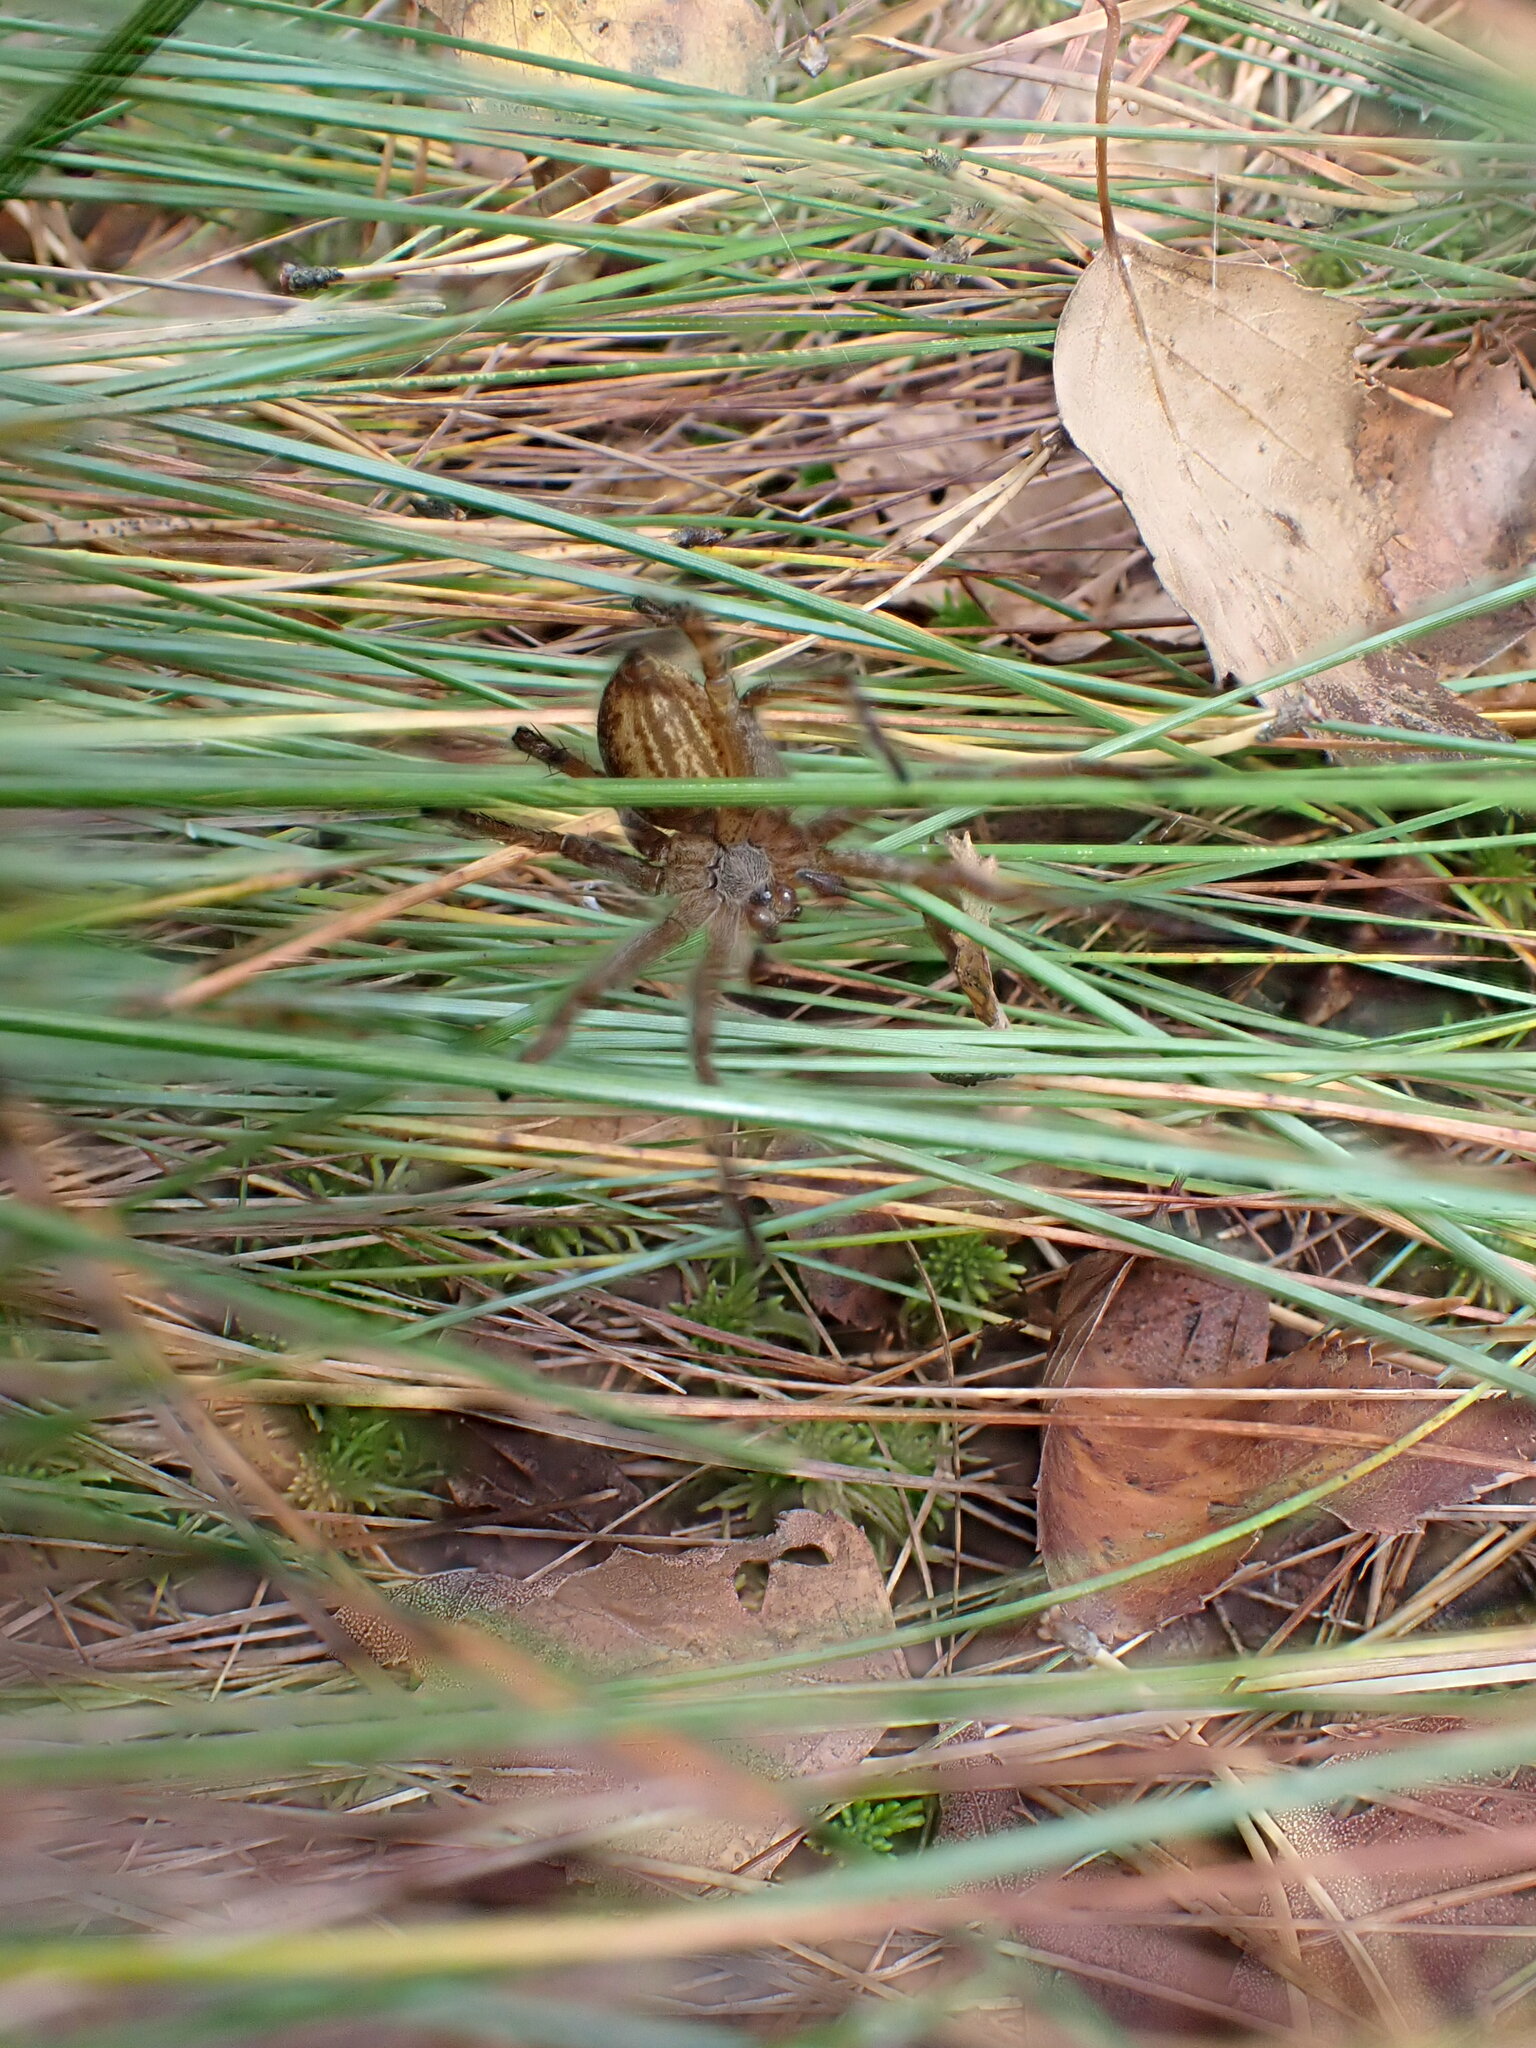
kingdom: Animalia
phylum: Arthropoda
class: Arachnida
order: Araneae
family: Pisauridae
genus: Dolomedes
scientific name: Dolomedes
